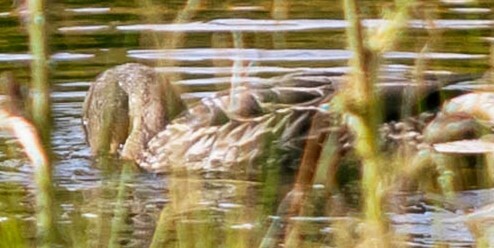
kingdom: Animalia
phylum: Chordata
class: Aves
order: Anseriformes
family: Anatidae
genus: Anas
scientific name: Anas platyrhynchos
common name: Mallard
